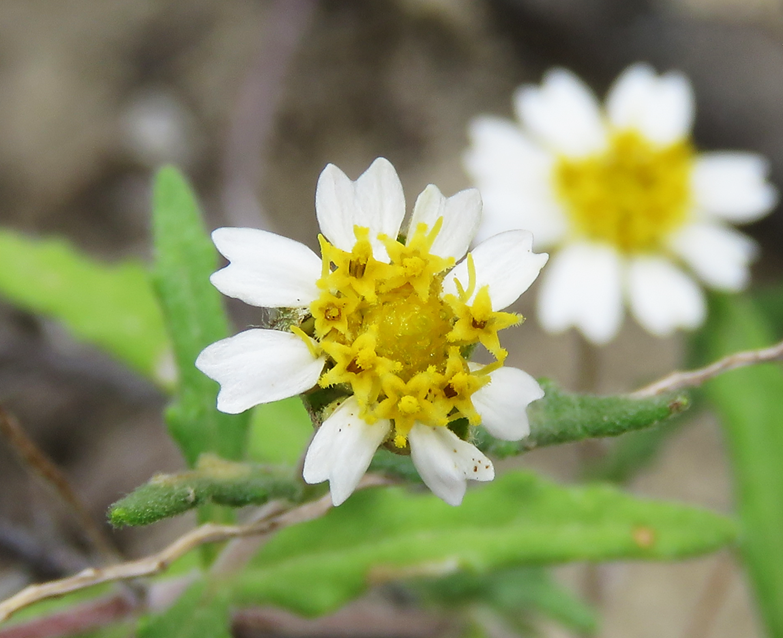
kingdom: Plantae
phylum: Tracheophyta
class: Magnoliopsida
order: Asterales
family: Asteraceae
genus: Melampodium
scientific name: Melampodium cinereum
